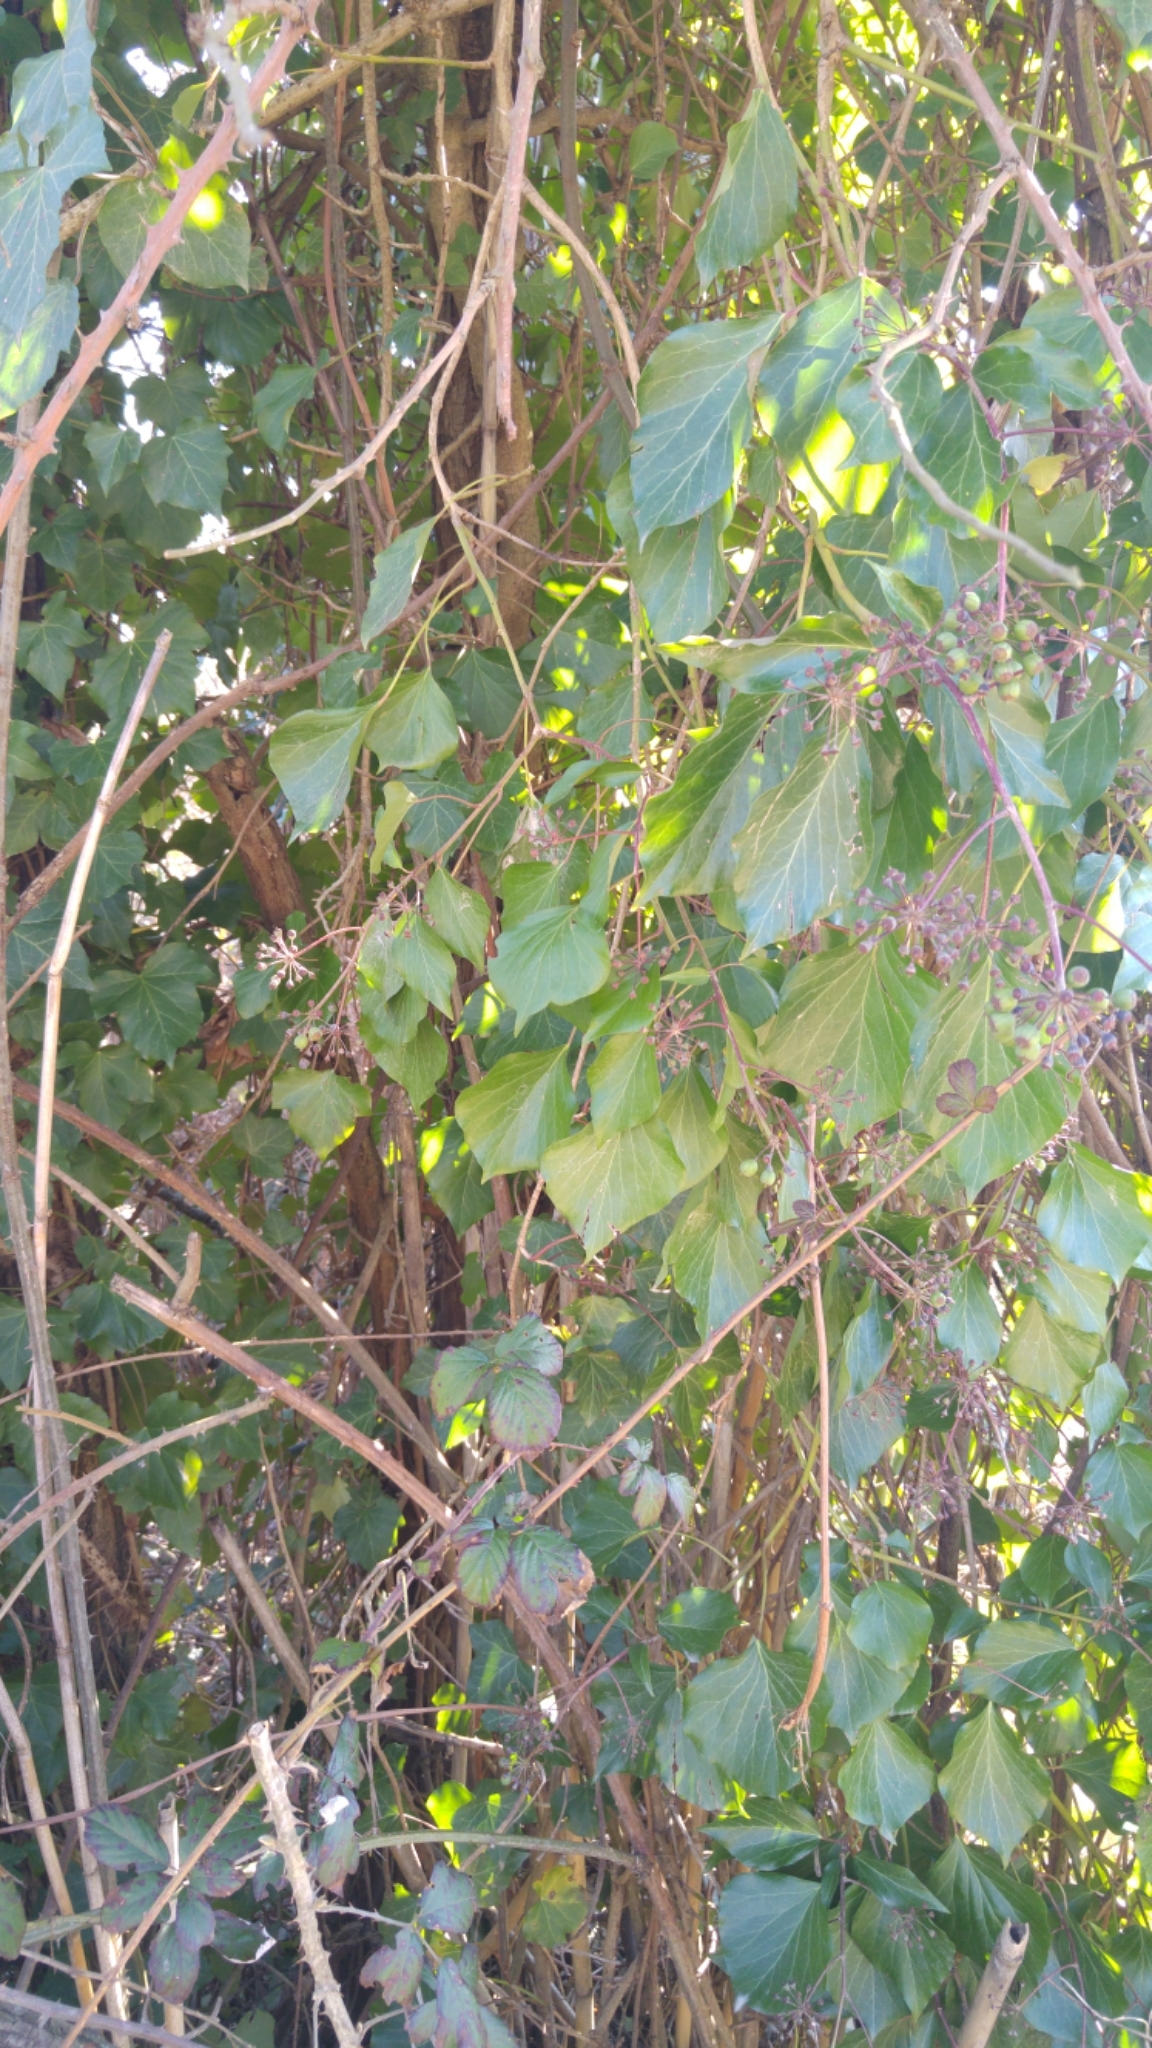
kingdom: Plantae
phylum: Tracheophyta
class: Magnoliopsida
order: Apiales
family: Araliaceae
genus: Hedera
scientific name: Hedera helix
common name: Ivy
